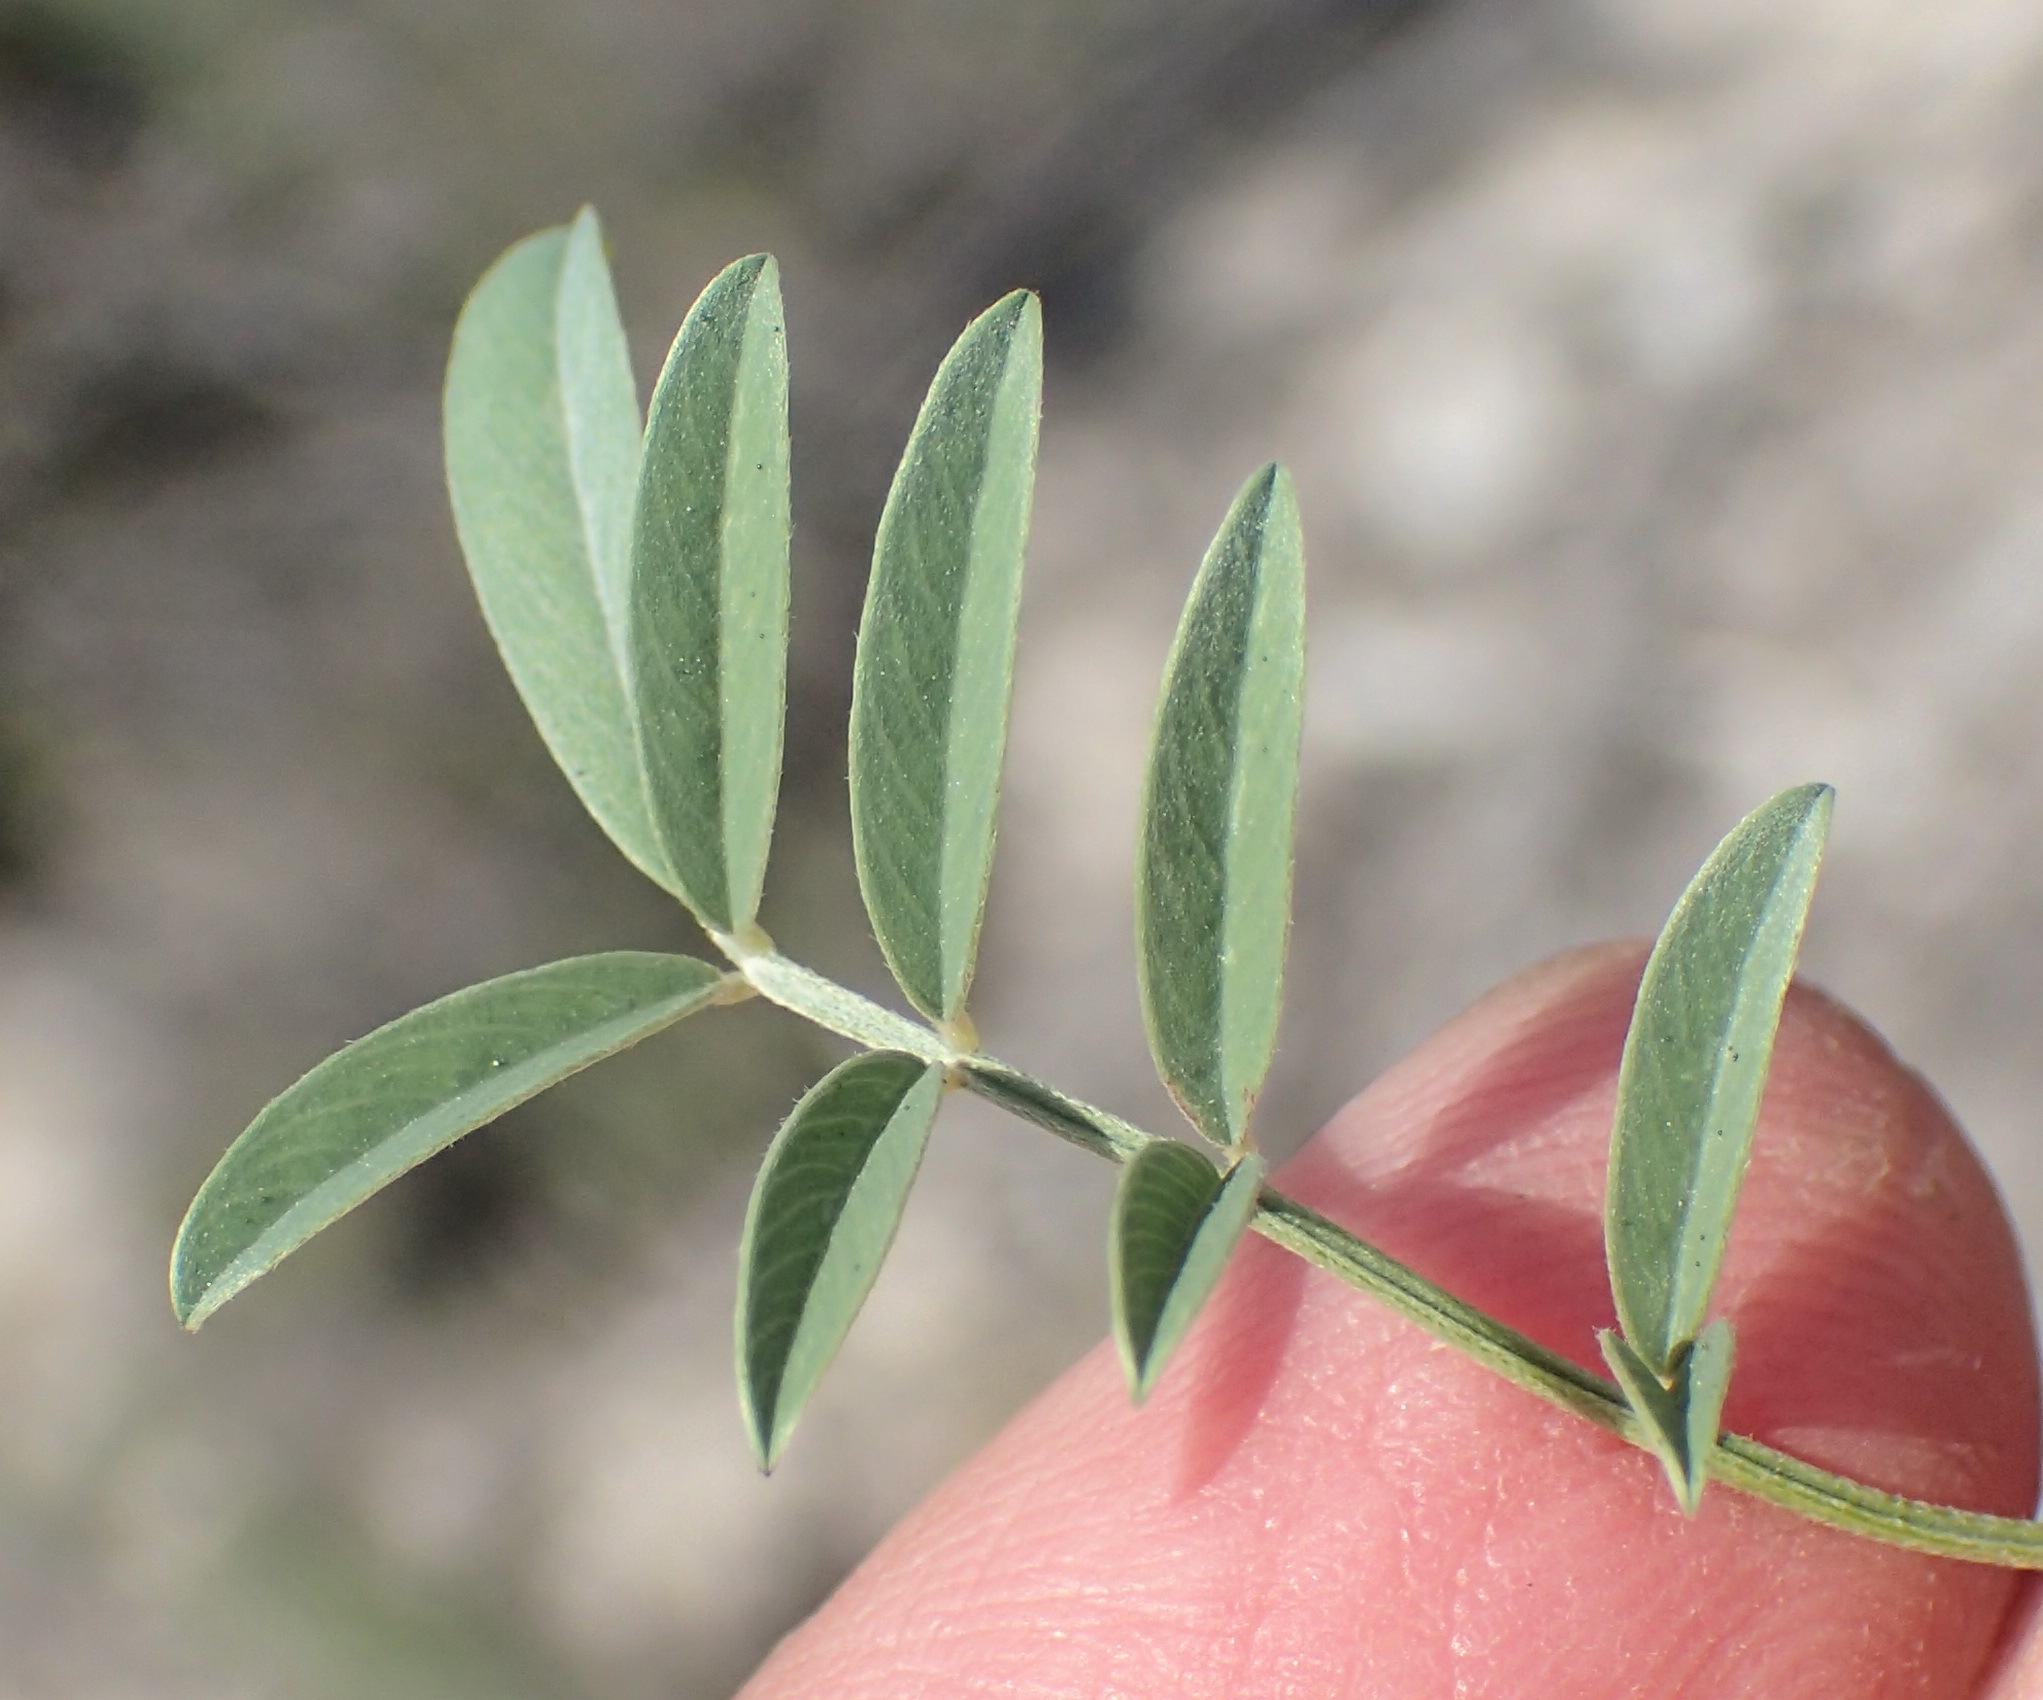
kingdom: Plantae
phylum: Tracheophyta
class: Magnoliopsida
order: Fabales
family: Fabaceae
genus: Tephrosia
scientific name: Tephrosia capensis
